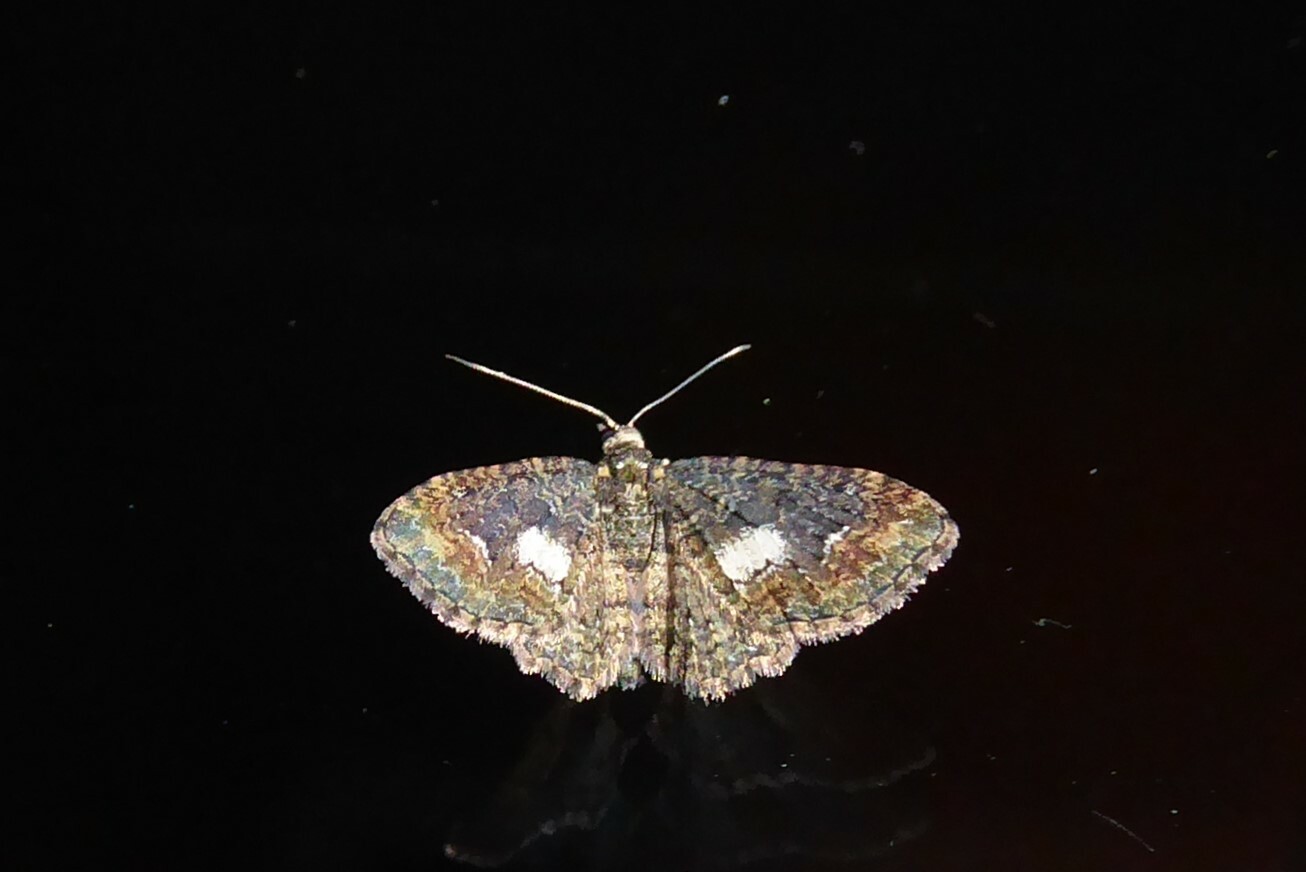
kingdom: Animalia
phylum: Arthropoda
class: Insecta
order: Lepidoptera
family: Geometridae
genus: Pasiphilodes
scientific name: Pasiphilodes testulata
